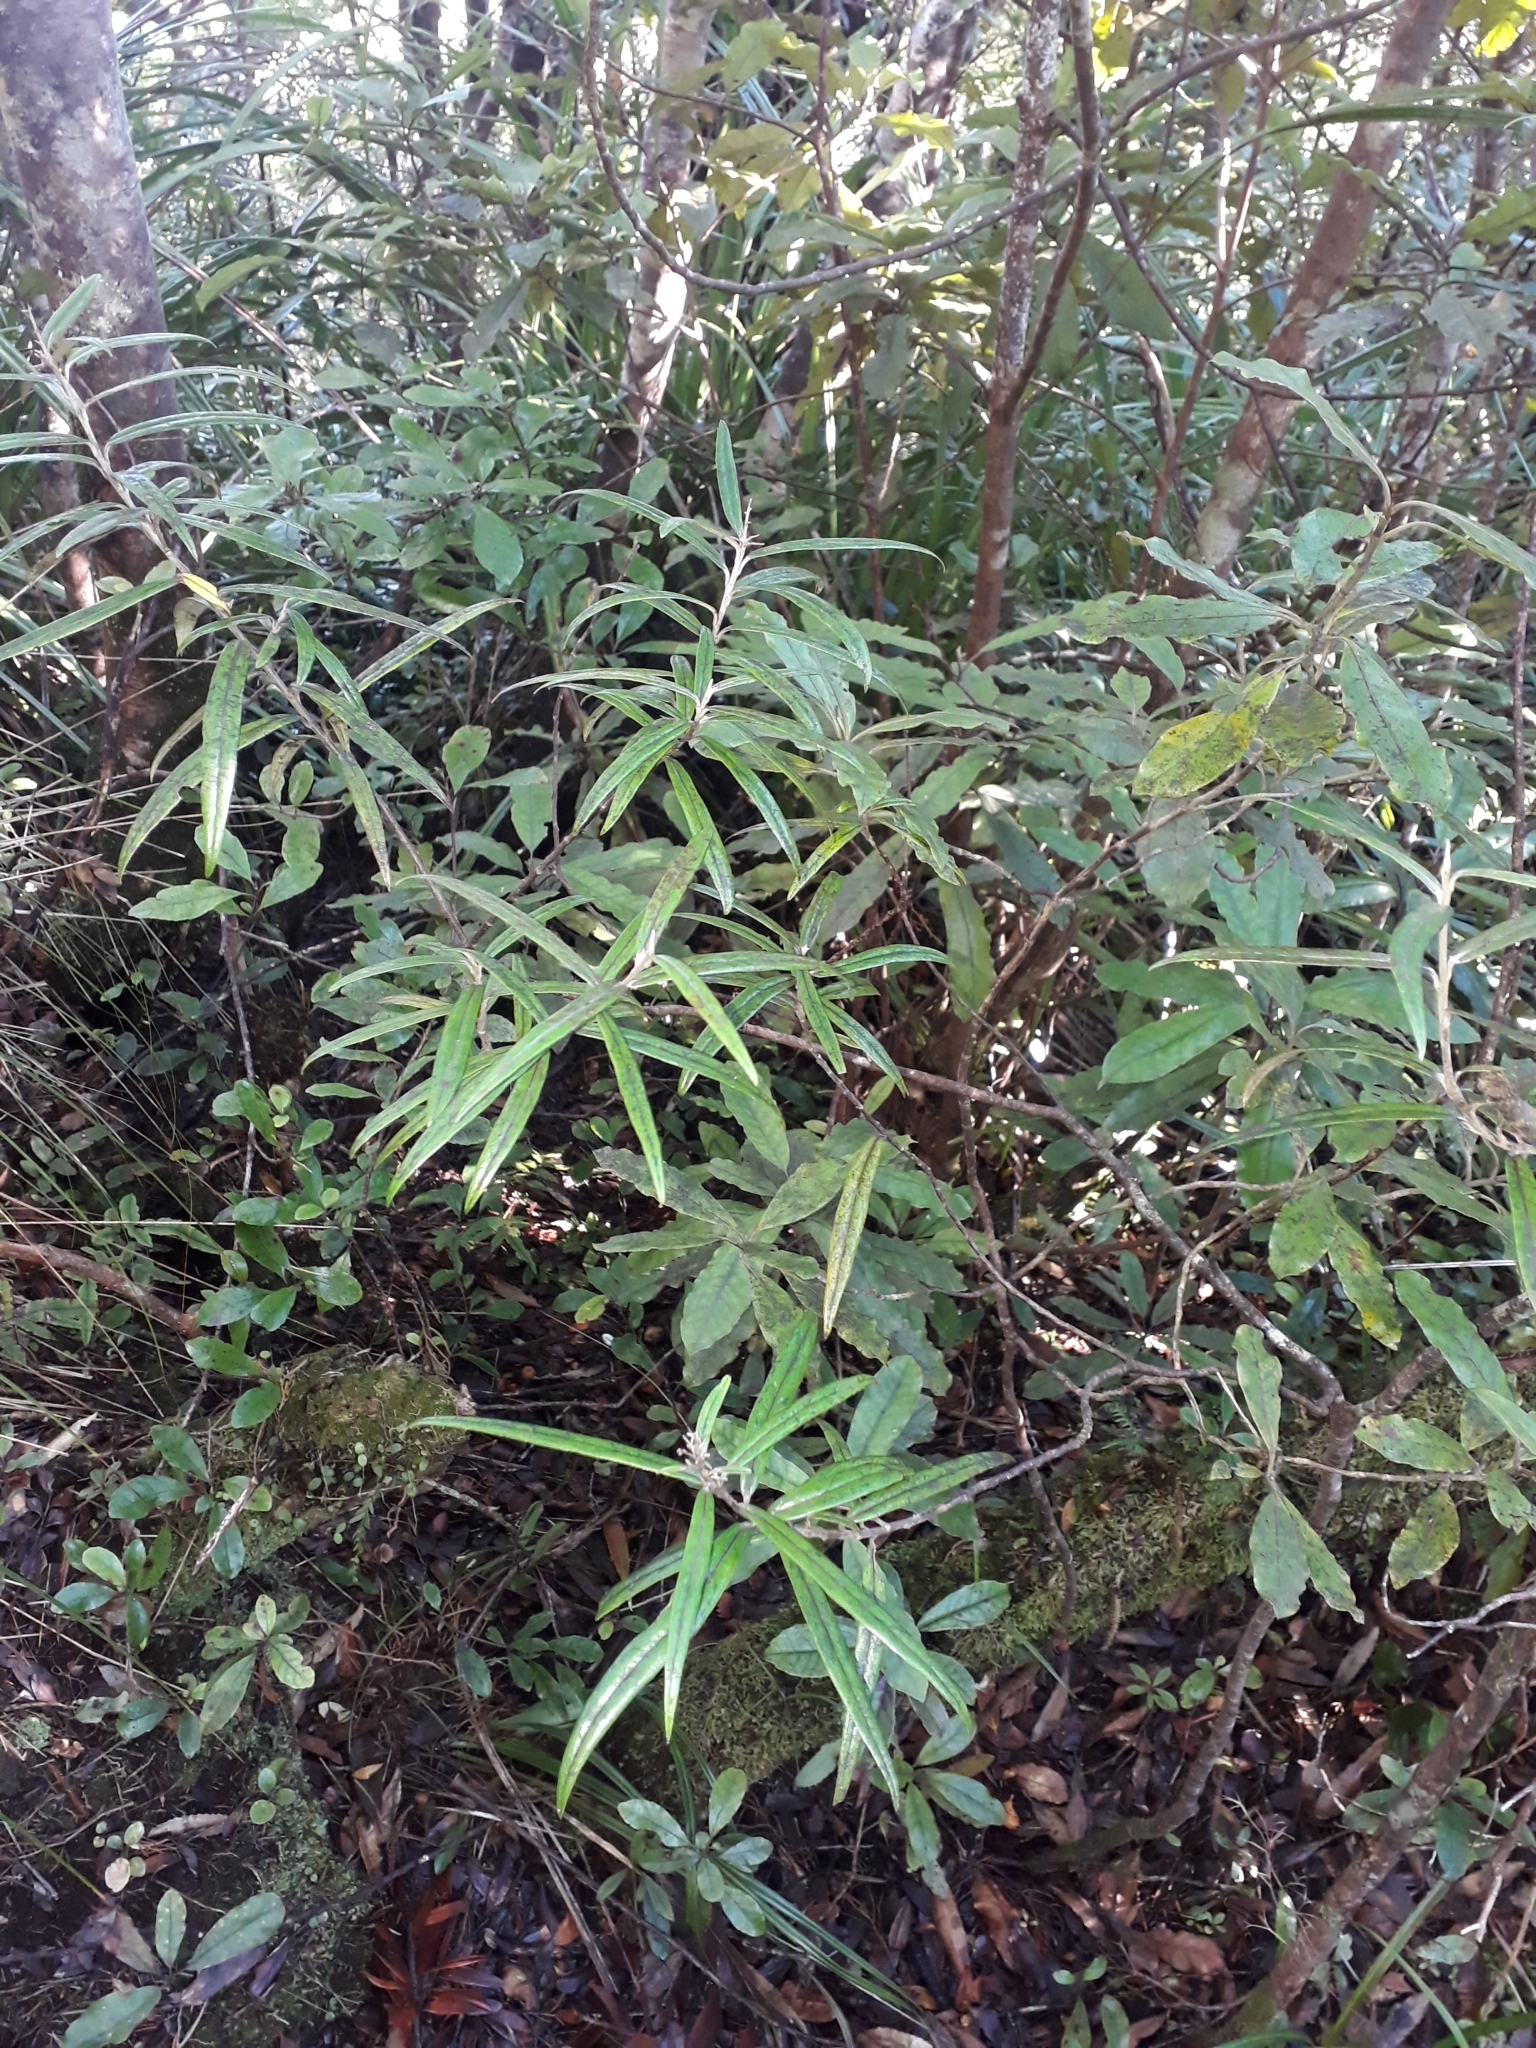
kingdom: Plantae
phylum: Tracheophyta
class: Magnoliopsida
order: Asterales
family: Argophyllaceae
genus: Corokia
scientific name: Corokia buddleioides
